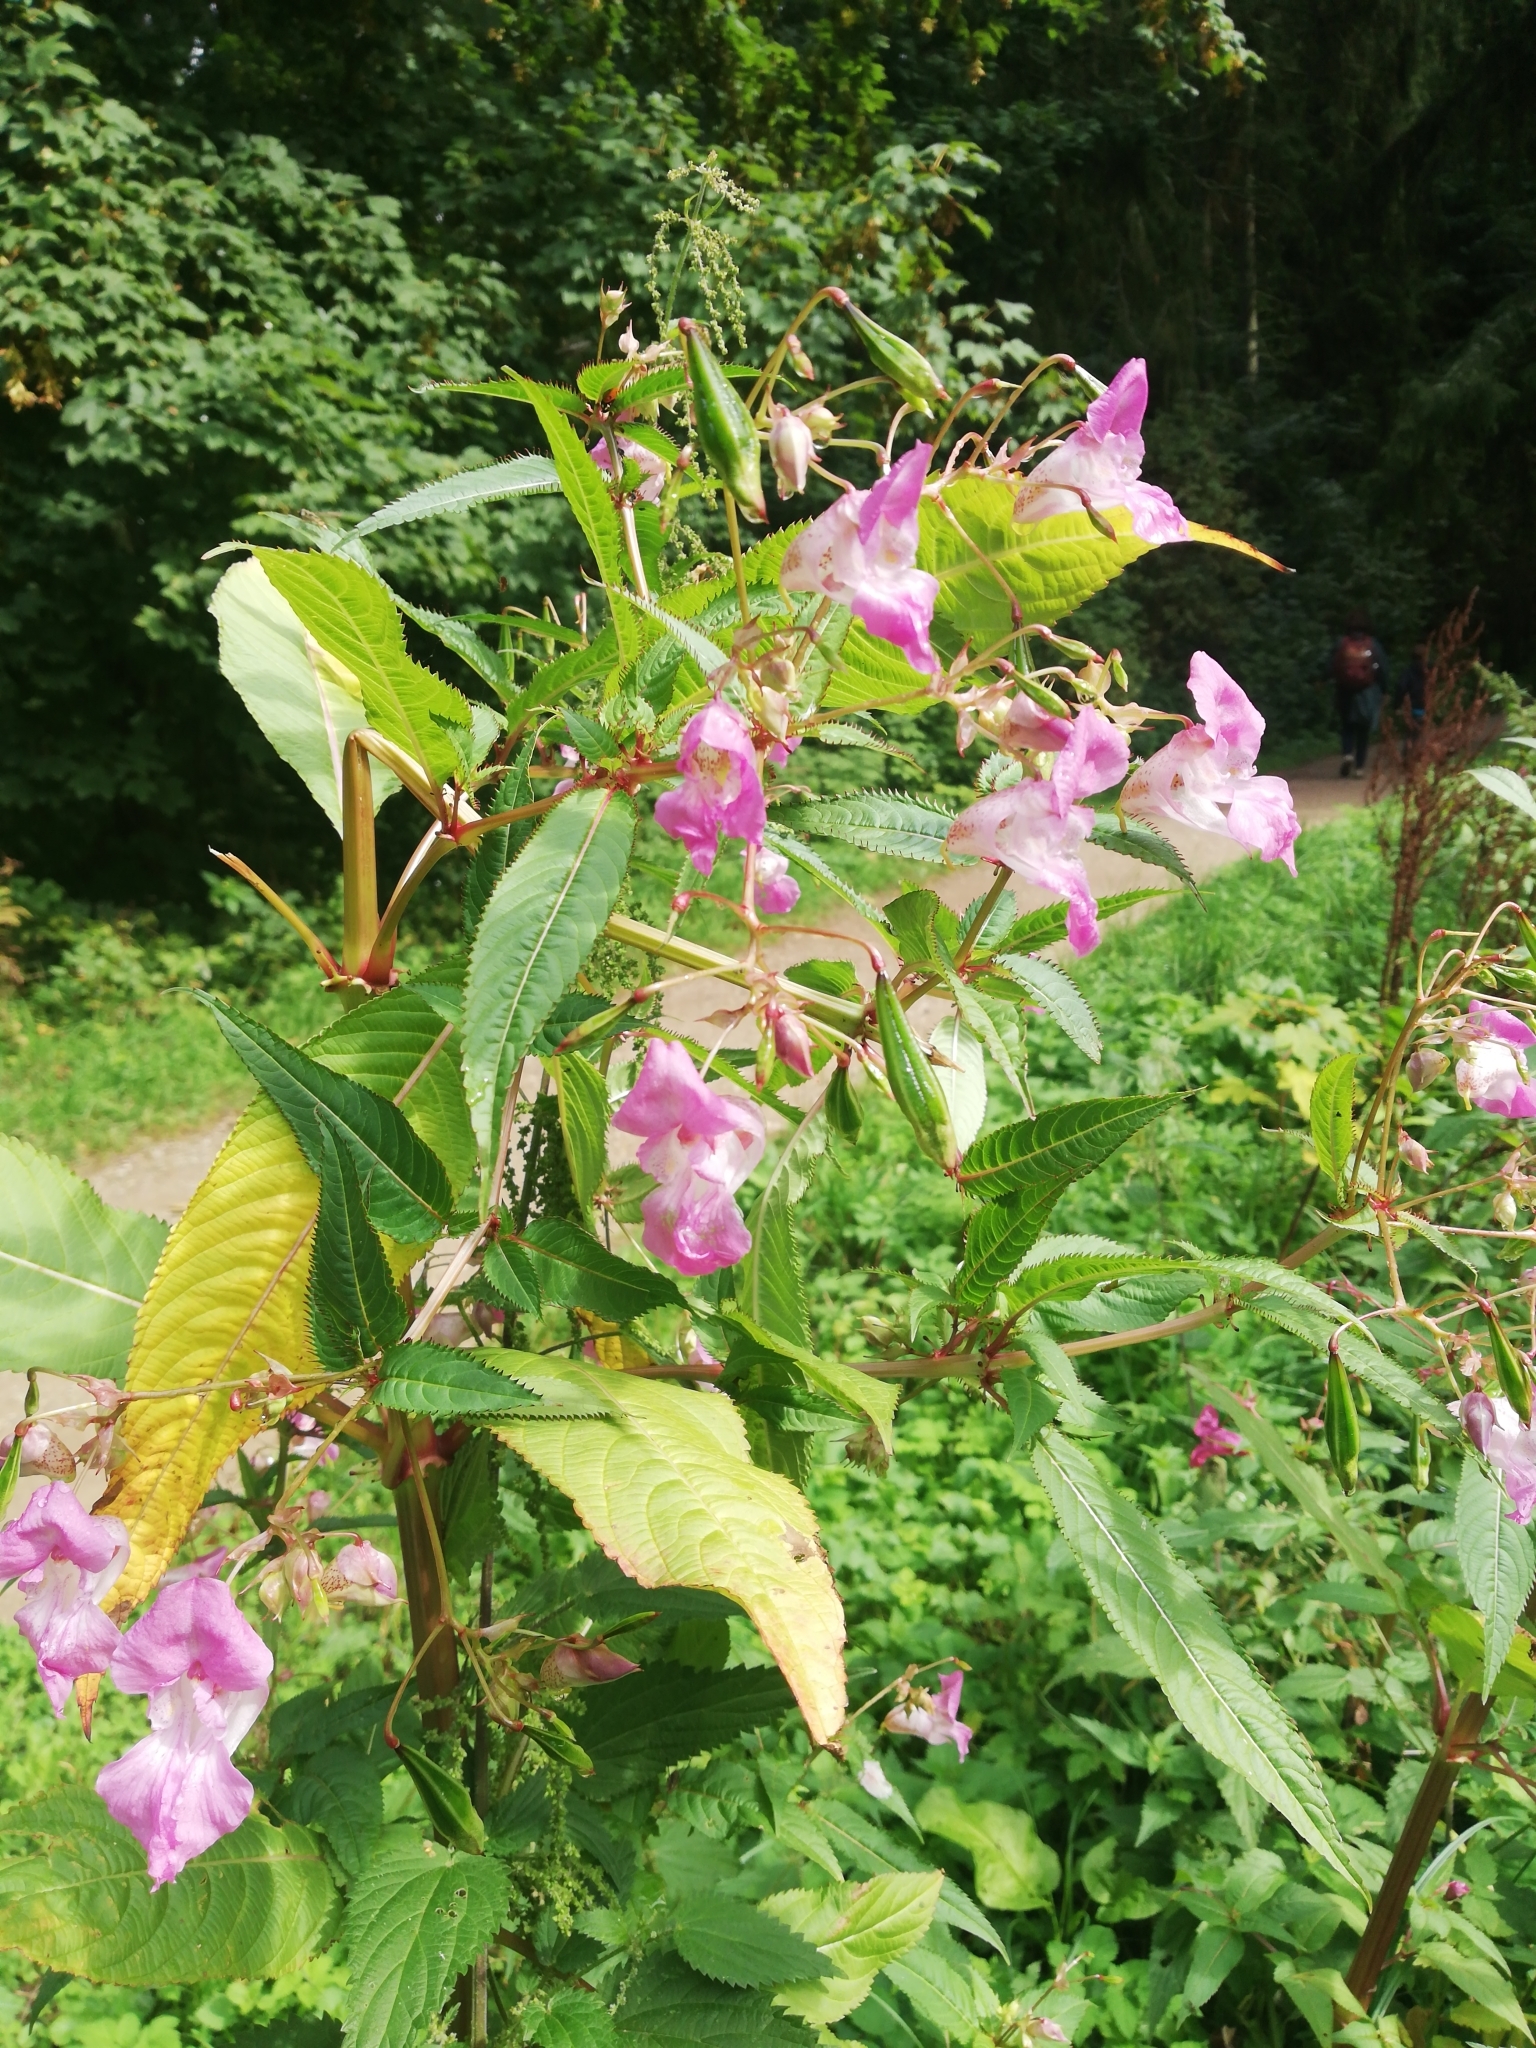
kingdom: Plantae
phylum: Tracheophyta
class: Magnoliopsida
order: Ericales
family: Balsaminaceae
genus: Impatiens
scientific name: Impatiens glandulifera
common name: Himalayan balsam
